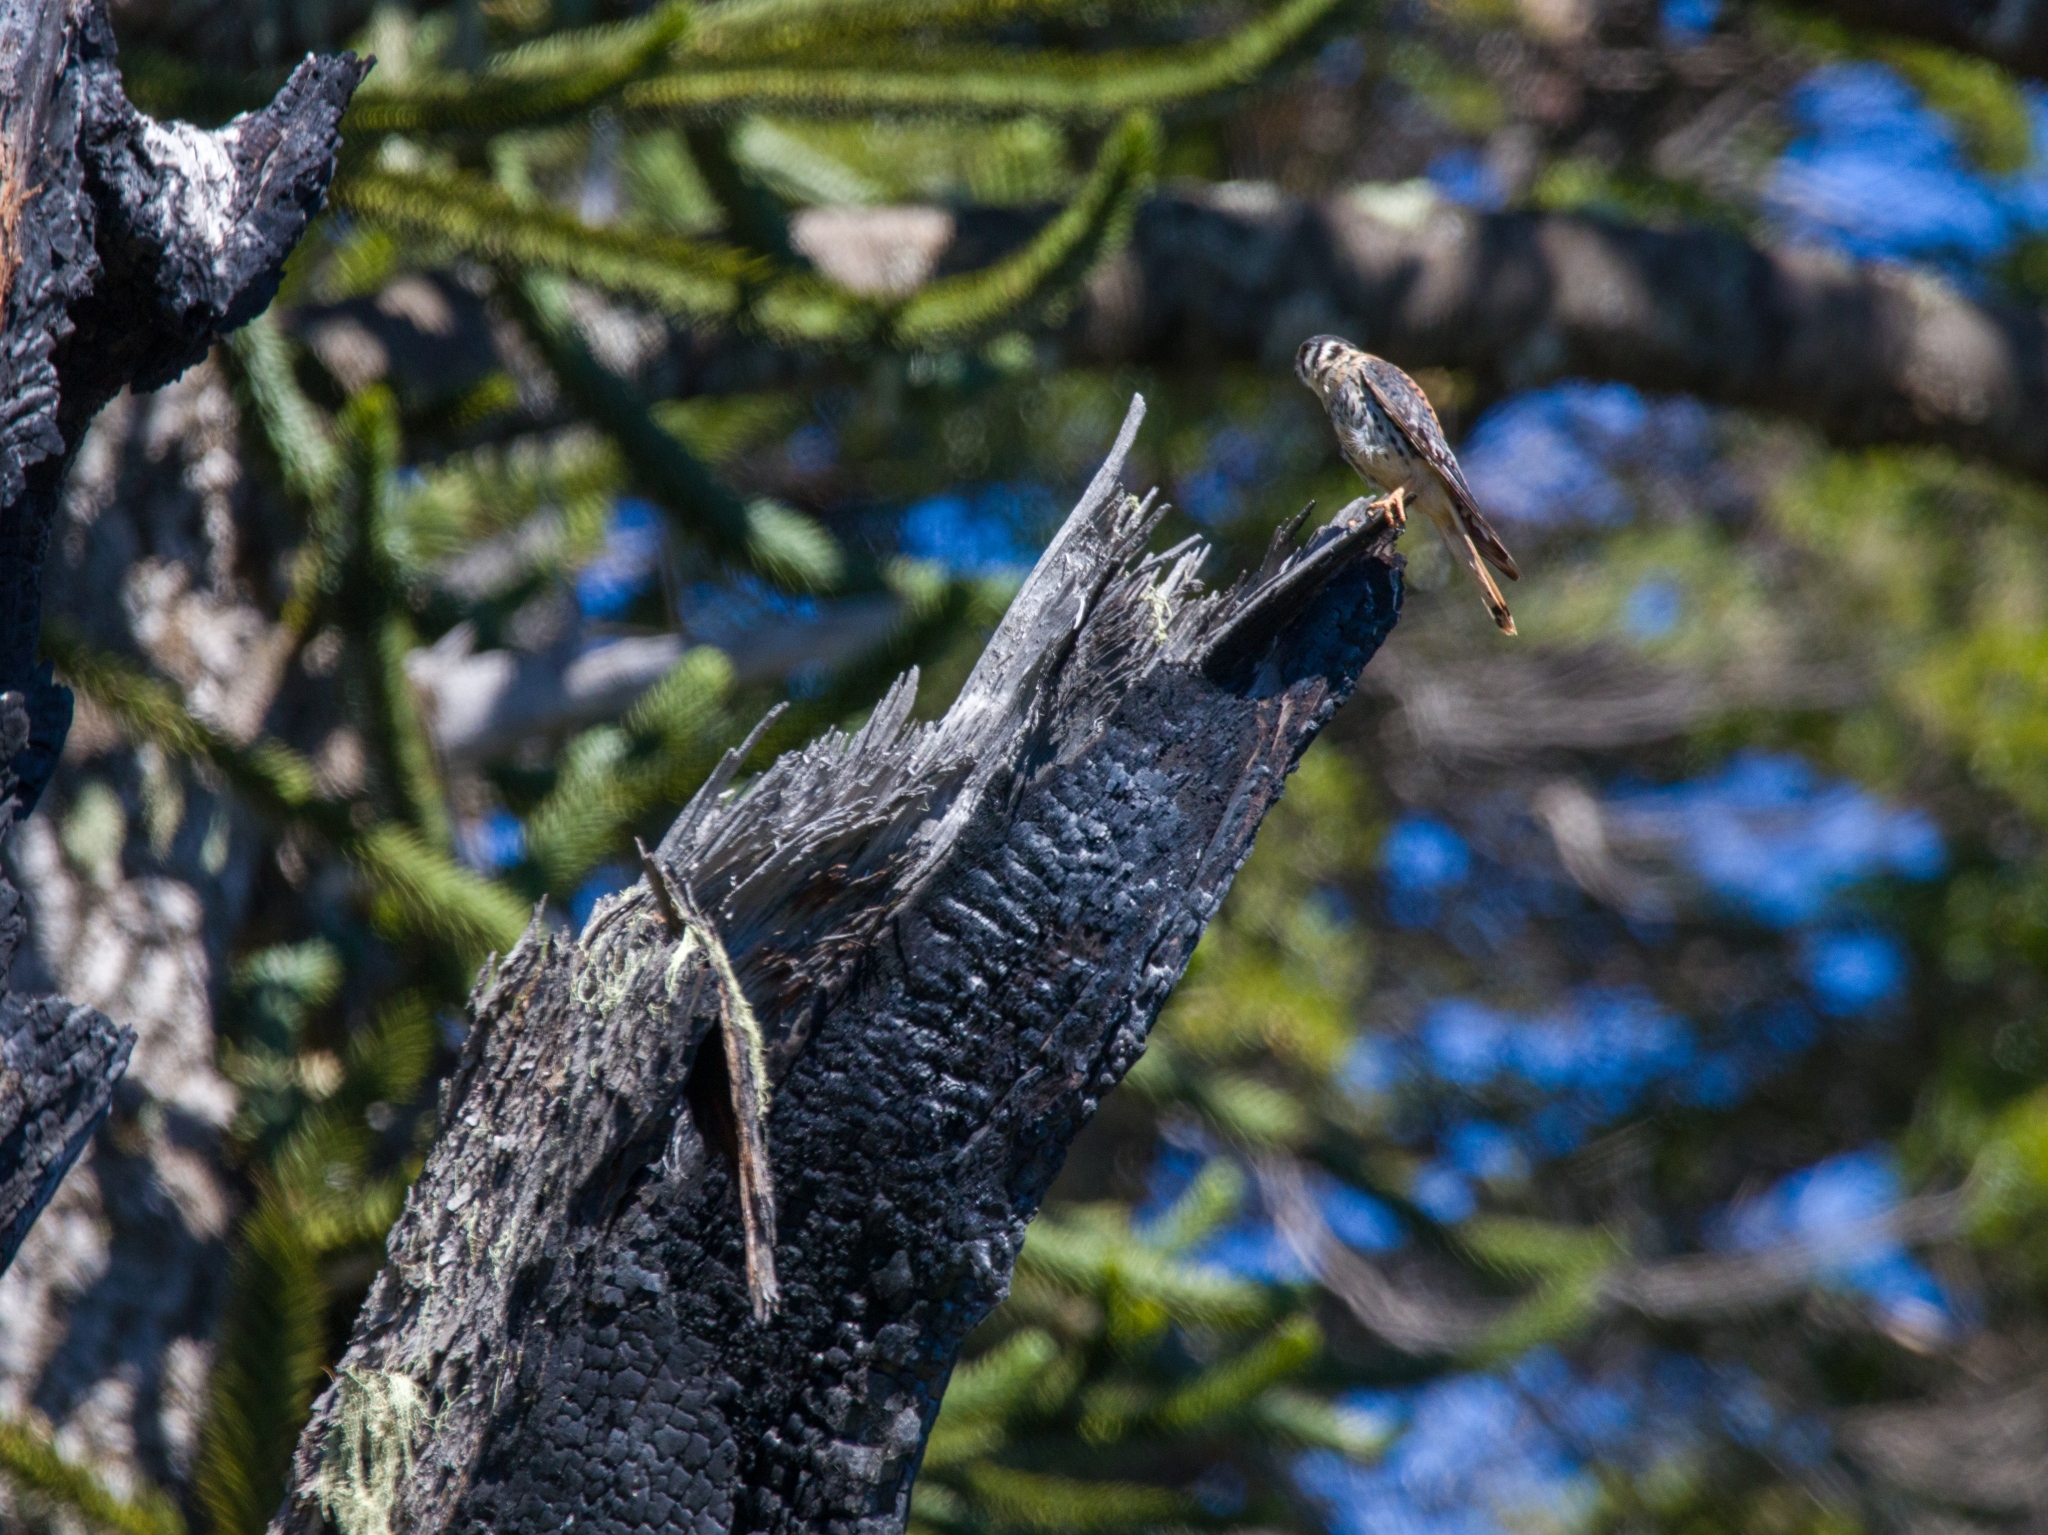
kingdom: Animalia
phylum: Chordata
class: Aves
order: Falconiformes
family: Falconidae
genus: Falco
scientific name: Falco sparverius
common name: American kestrel
